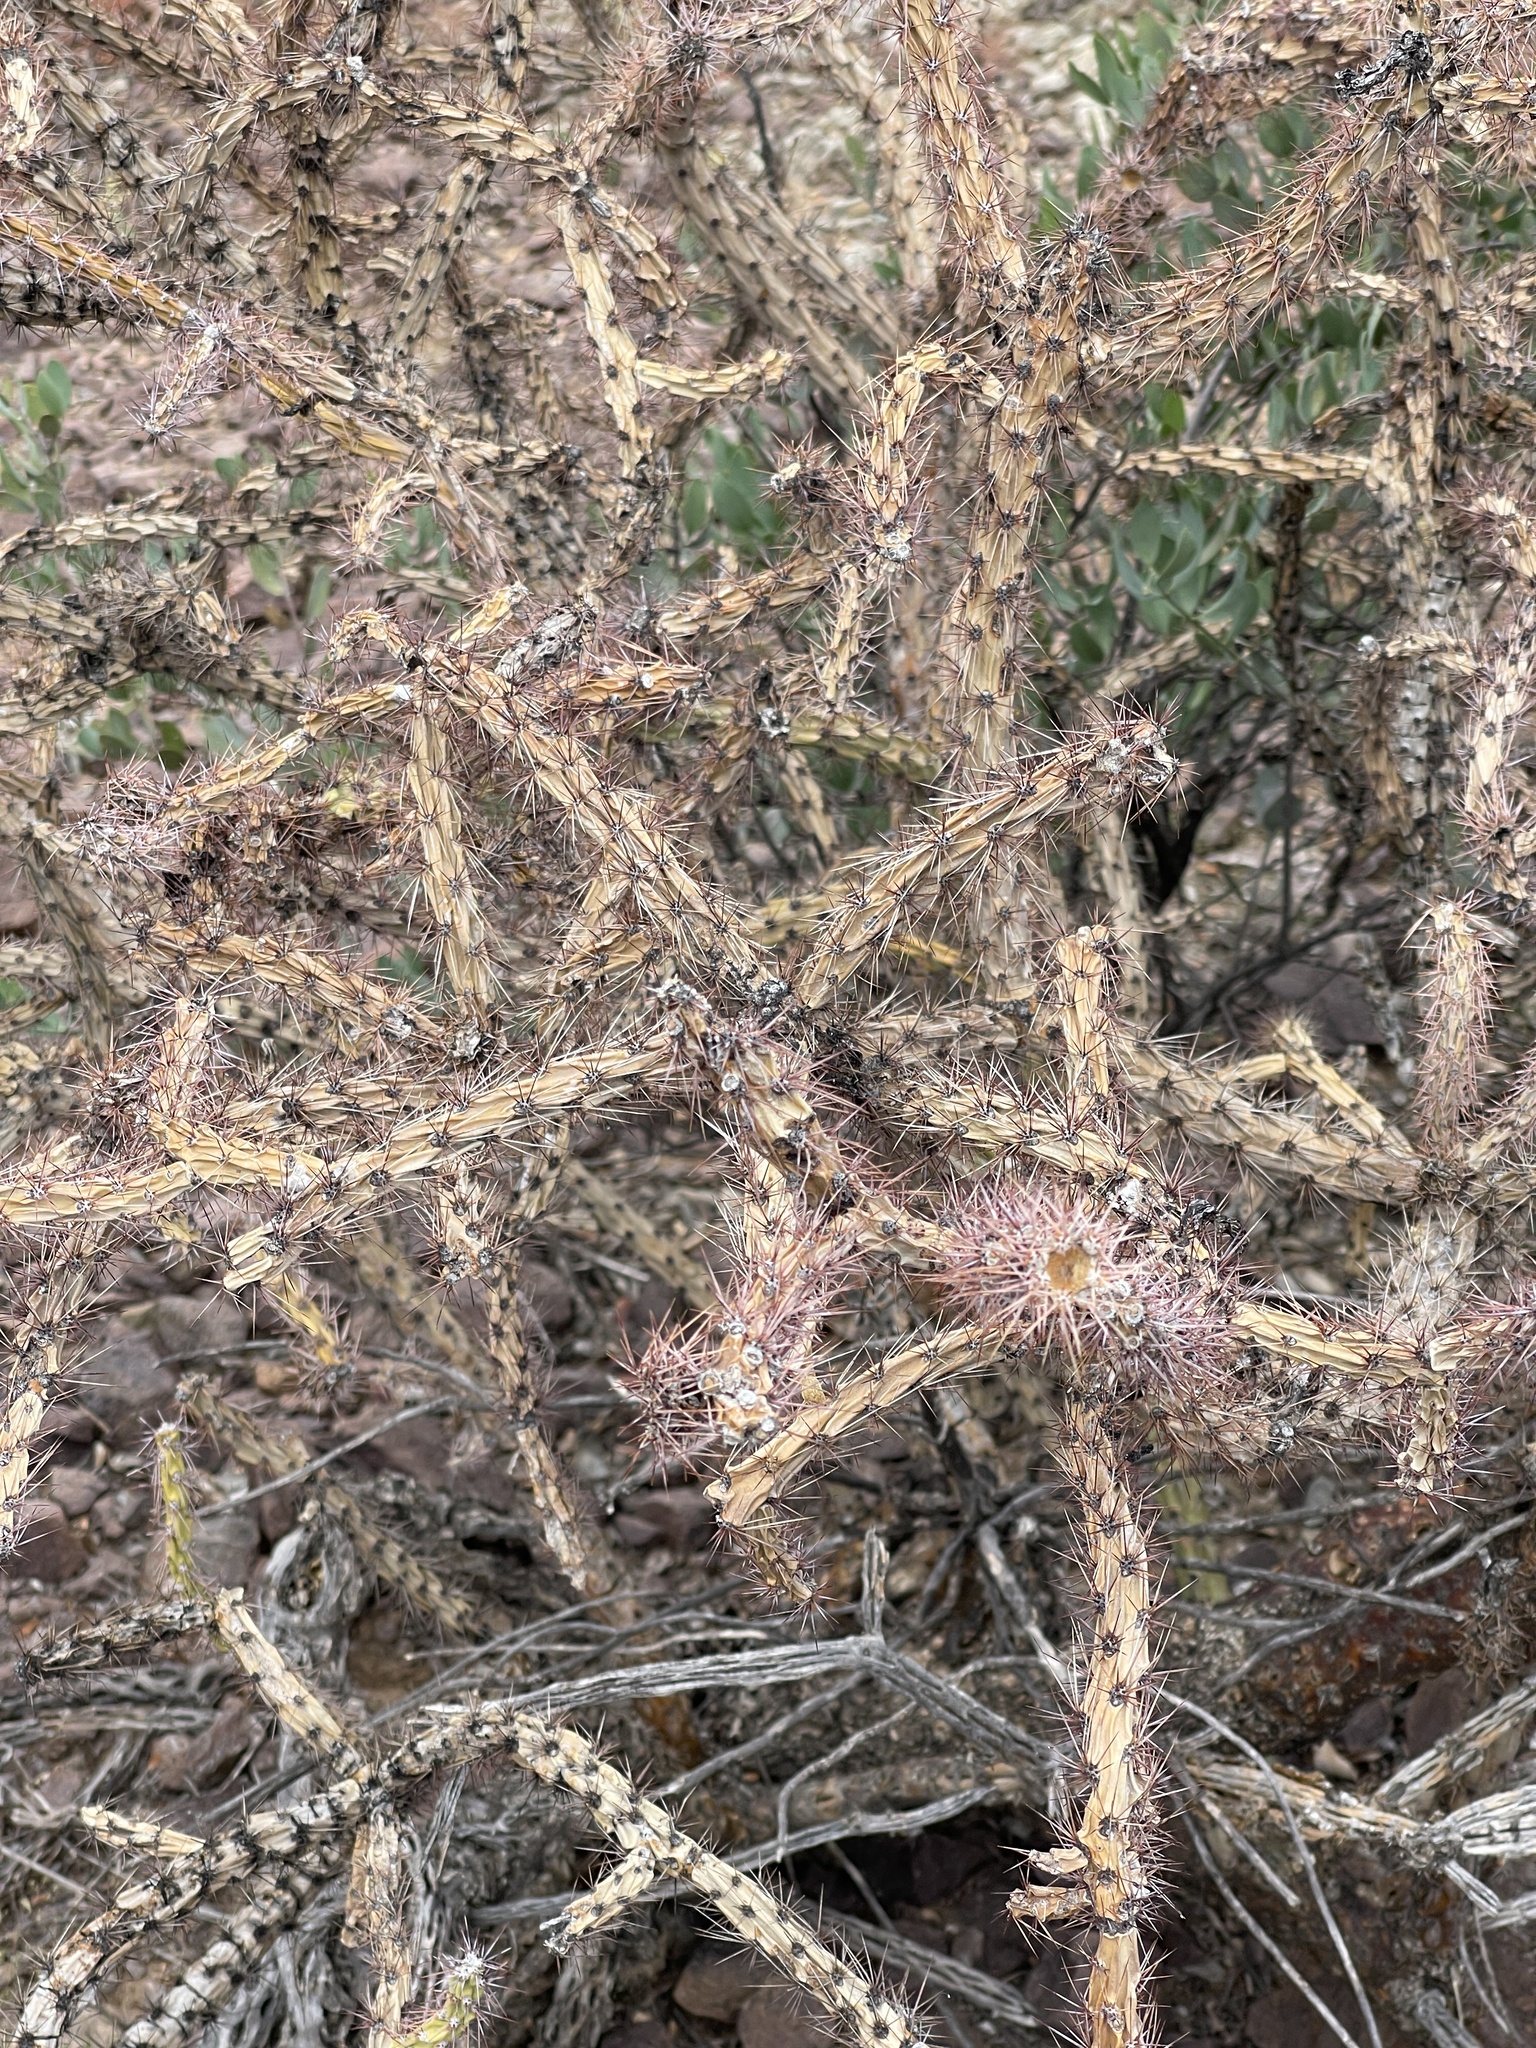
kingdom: Plantae
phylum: Tracheophyta
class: Magnoliopsida
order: Caryophyllales
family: Cactaceae
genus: Cylindropuntia
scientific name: Cylindropuntia thurberi
